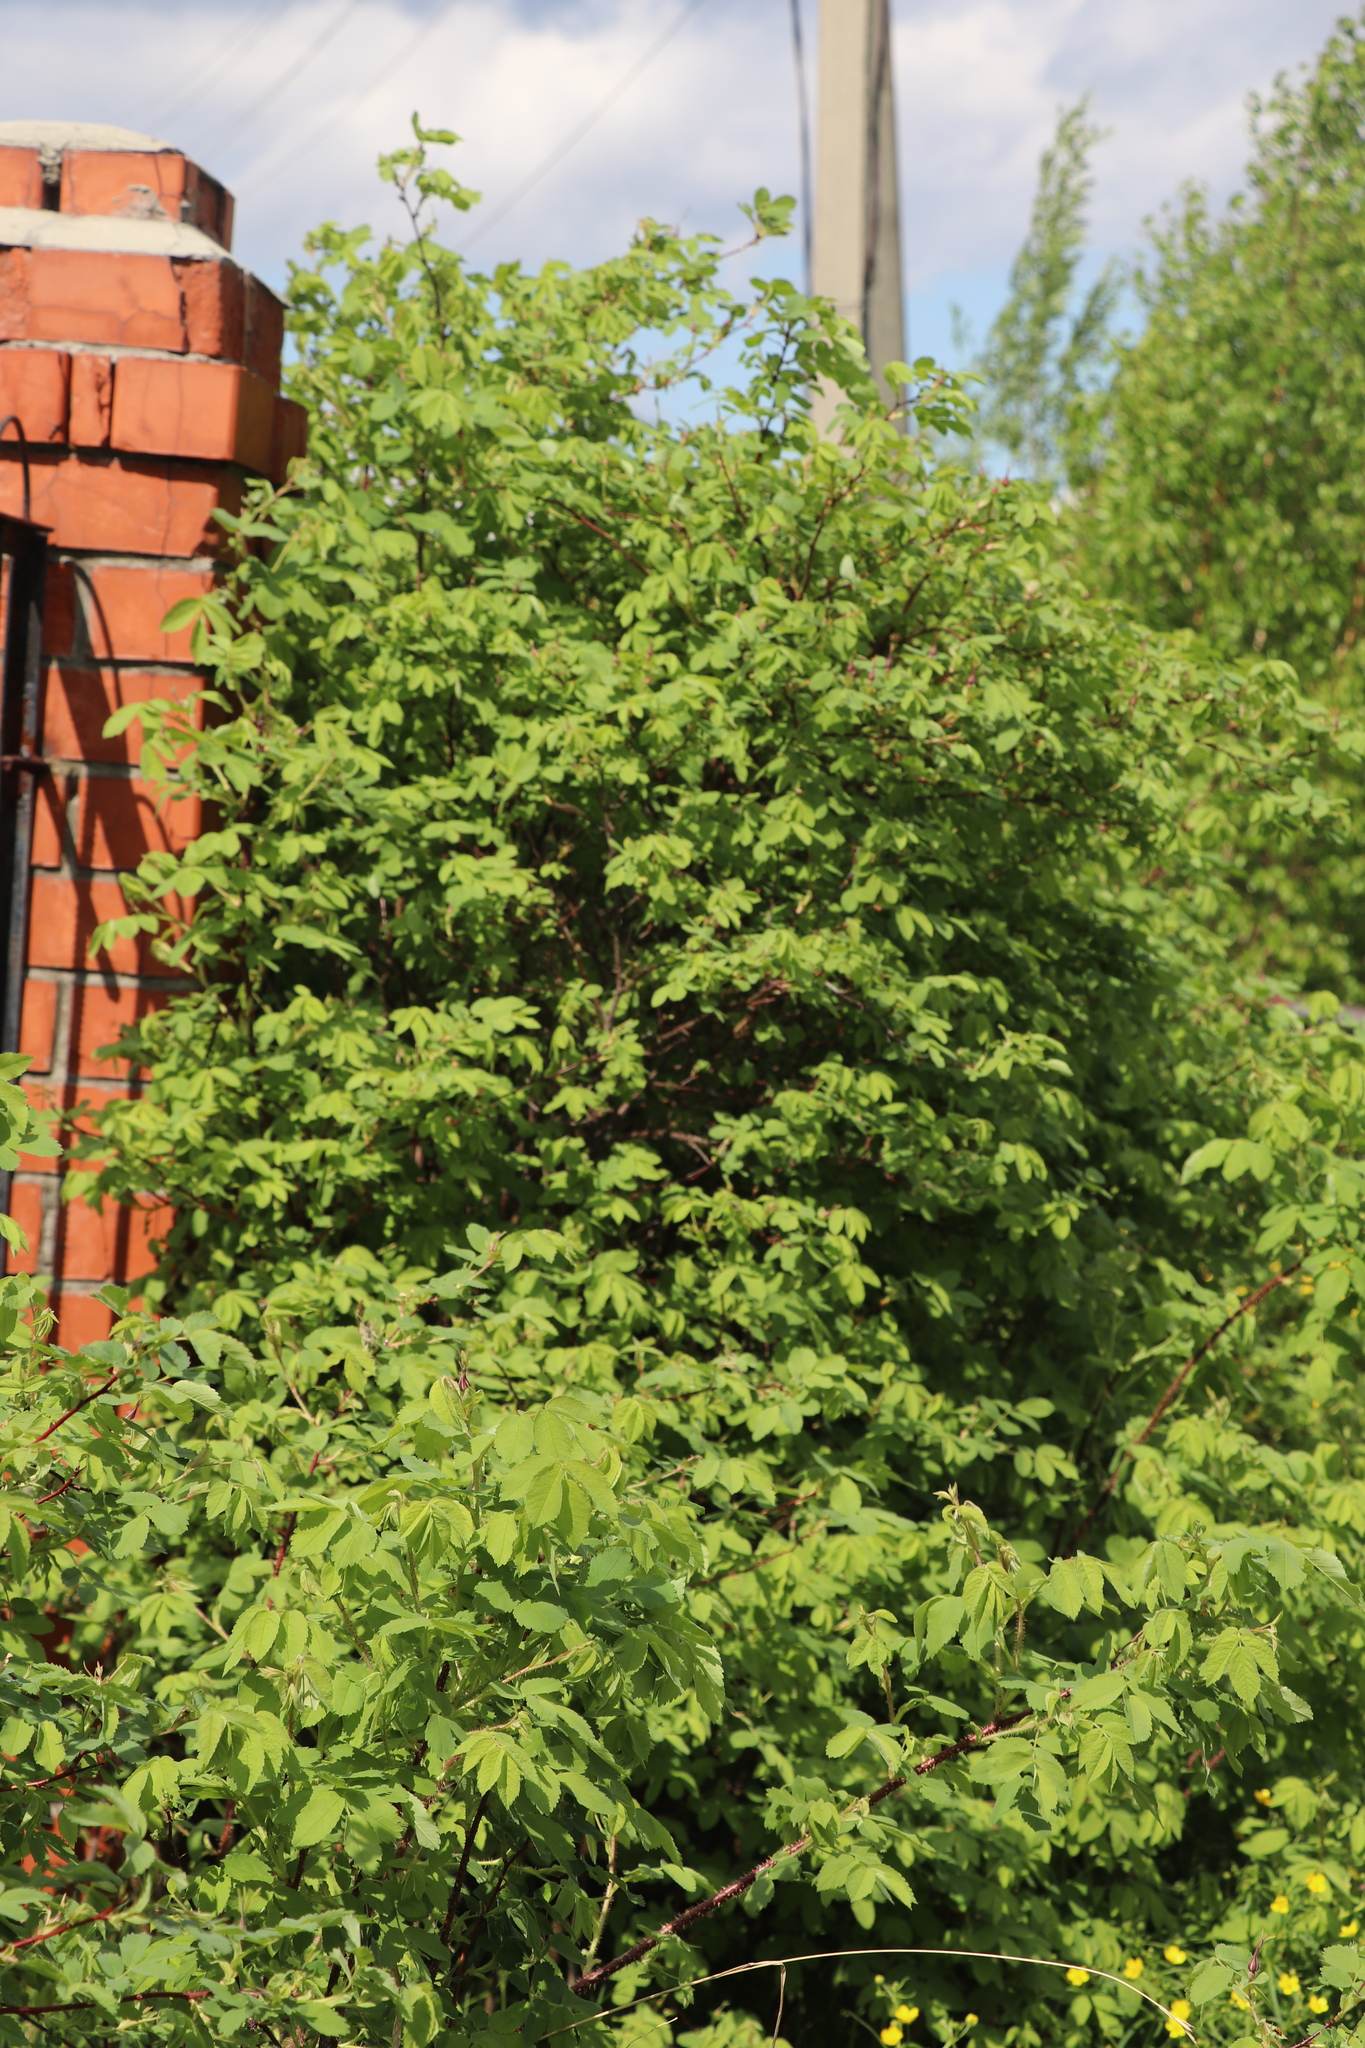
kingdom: Plantae
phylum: Tracheophyta
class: Magnoliopsida
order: Rosales
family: Rosaceae
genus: Rosa
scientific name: Rosa
